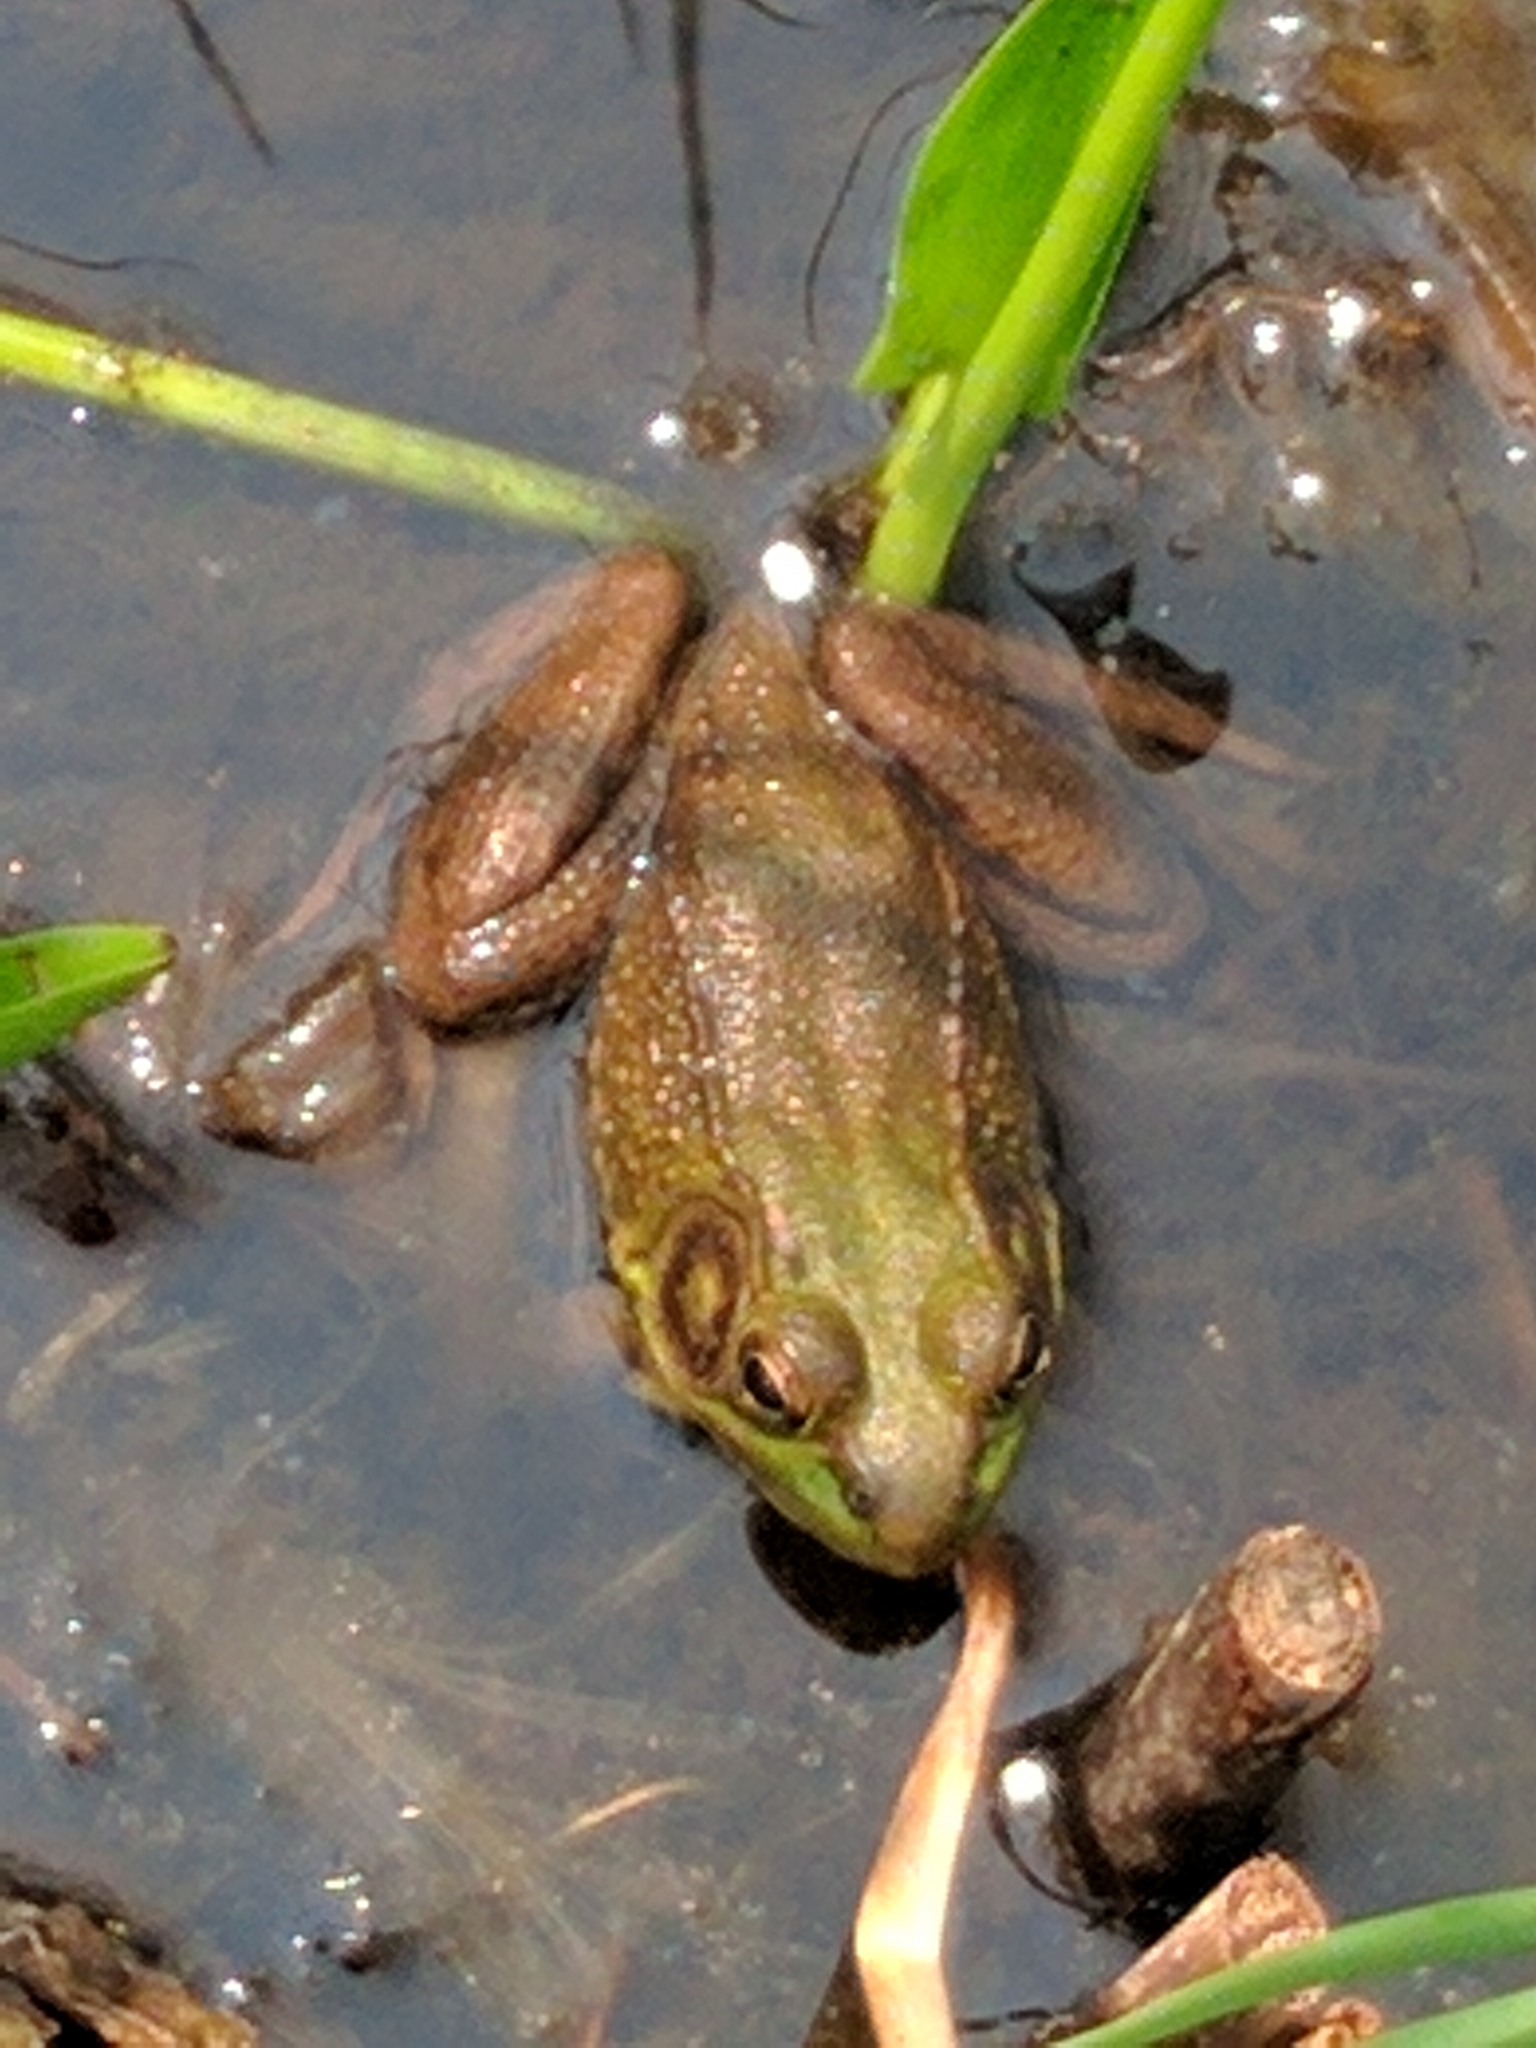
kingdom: Animalia
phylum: Chordata
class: Amphibia
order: Anura
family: Ranidae
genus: Lithobates
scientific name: Lithobates clamitans
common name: Green frog
